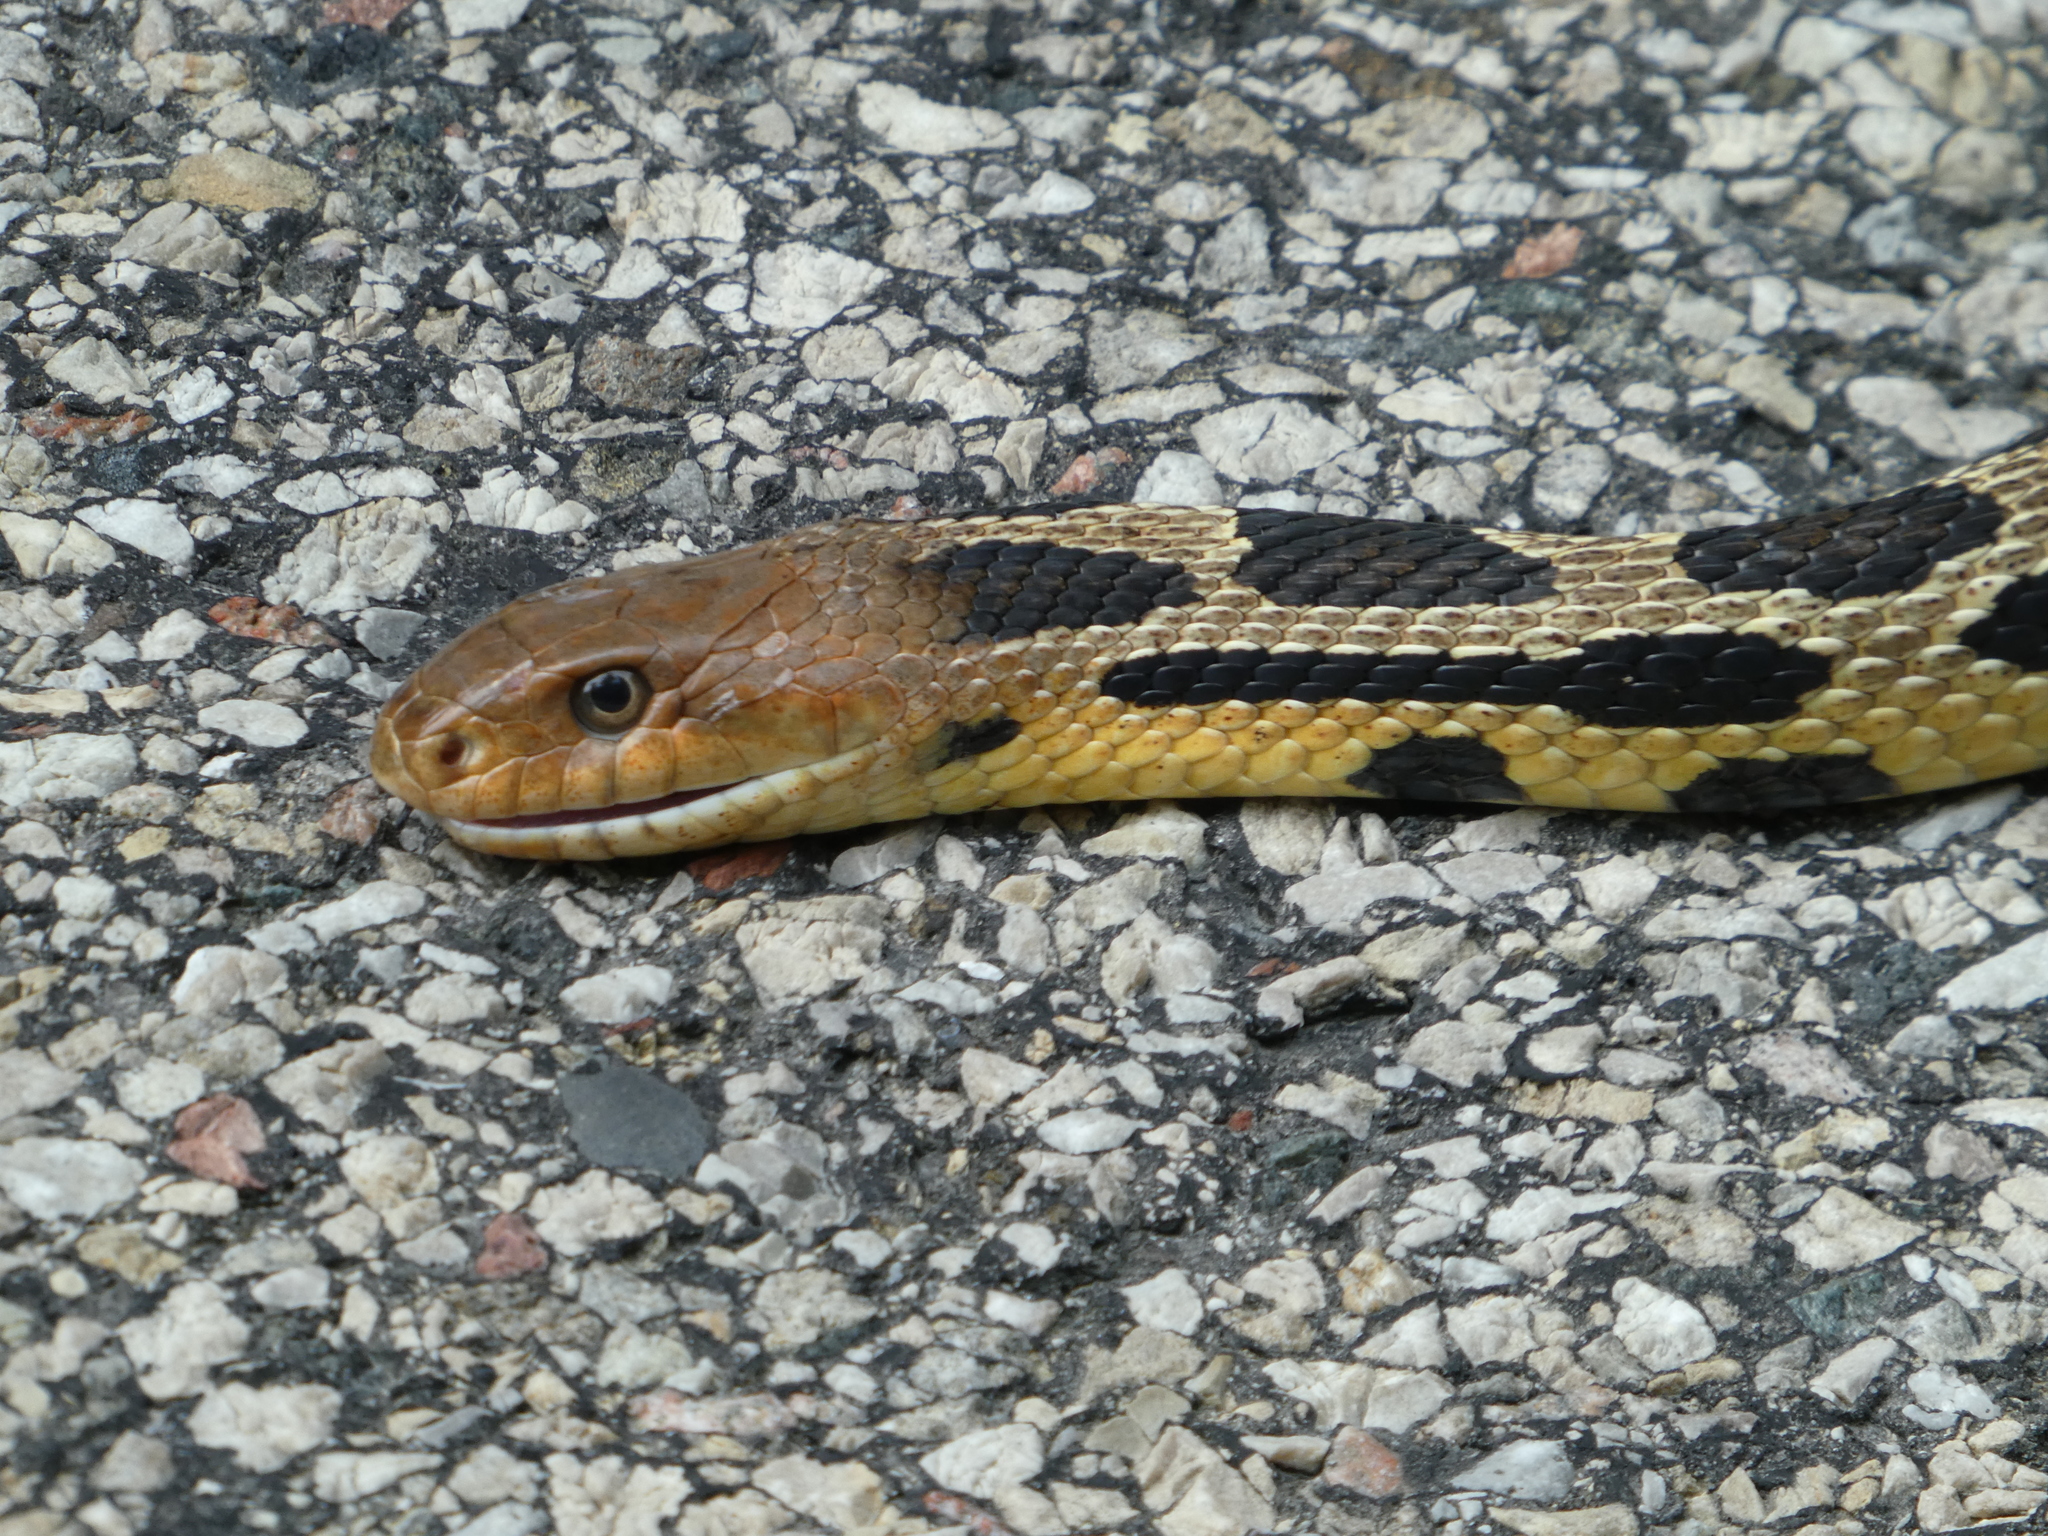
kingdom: Animalia
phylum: Chordata
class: Squamata
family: Colubridae
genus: Pantherophis
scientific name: Pantherophis vulpinus
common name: Eastern fox snake
